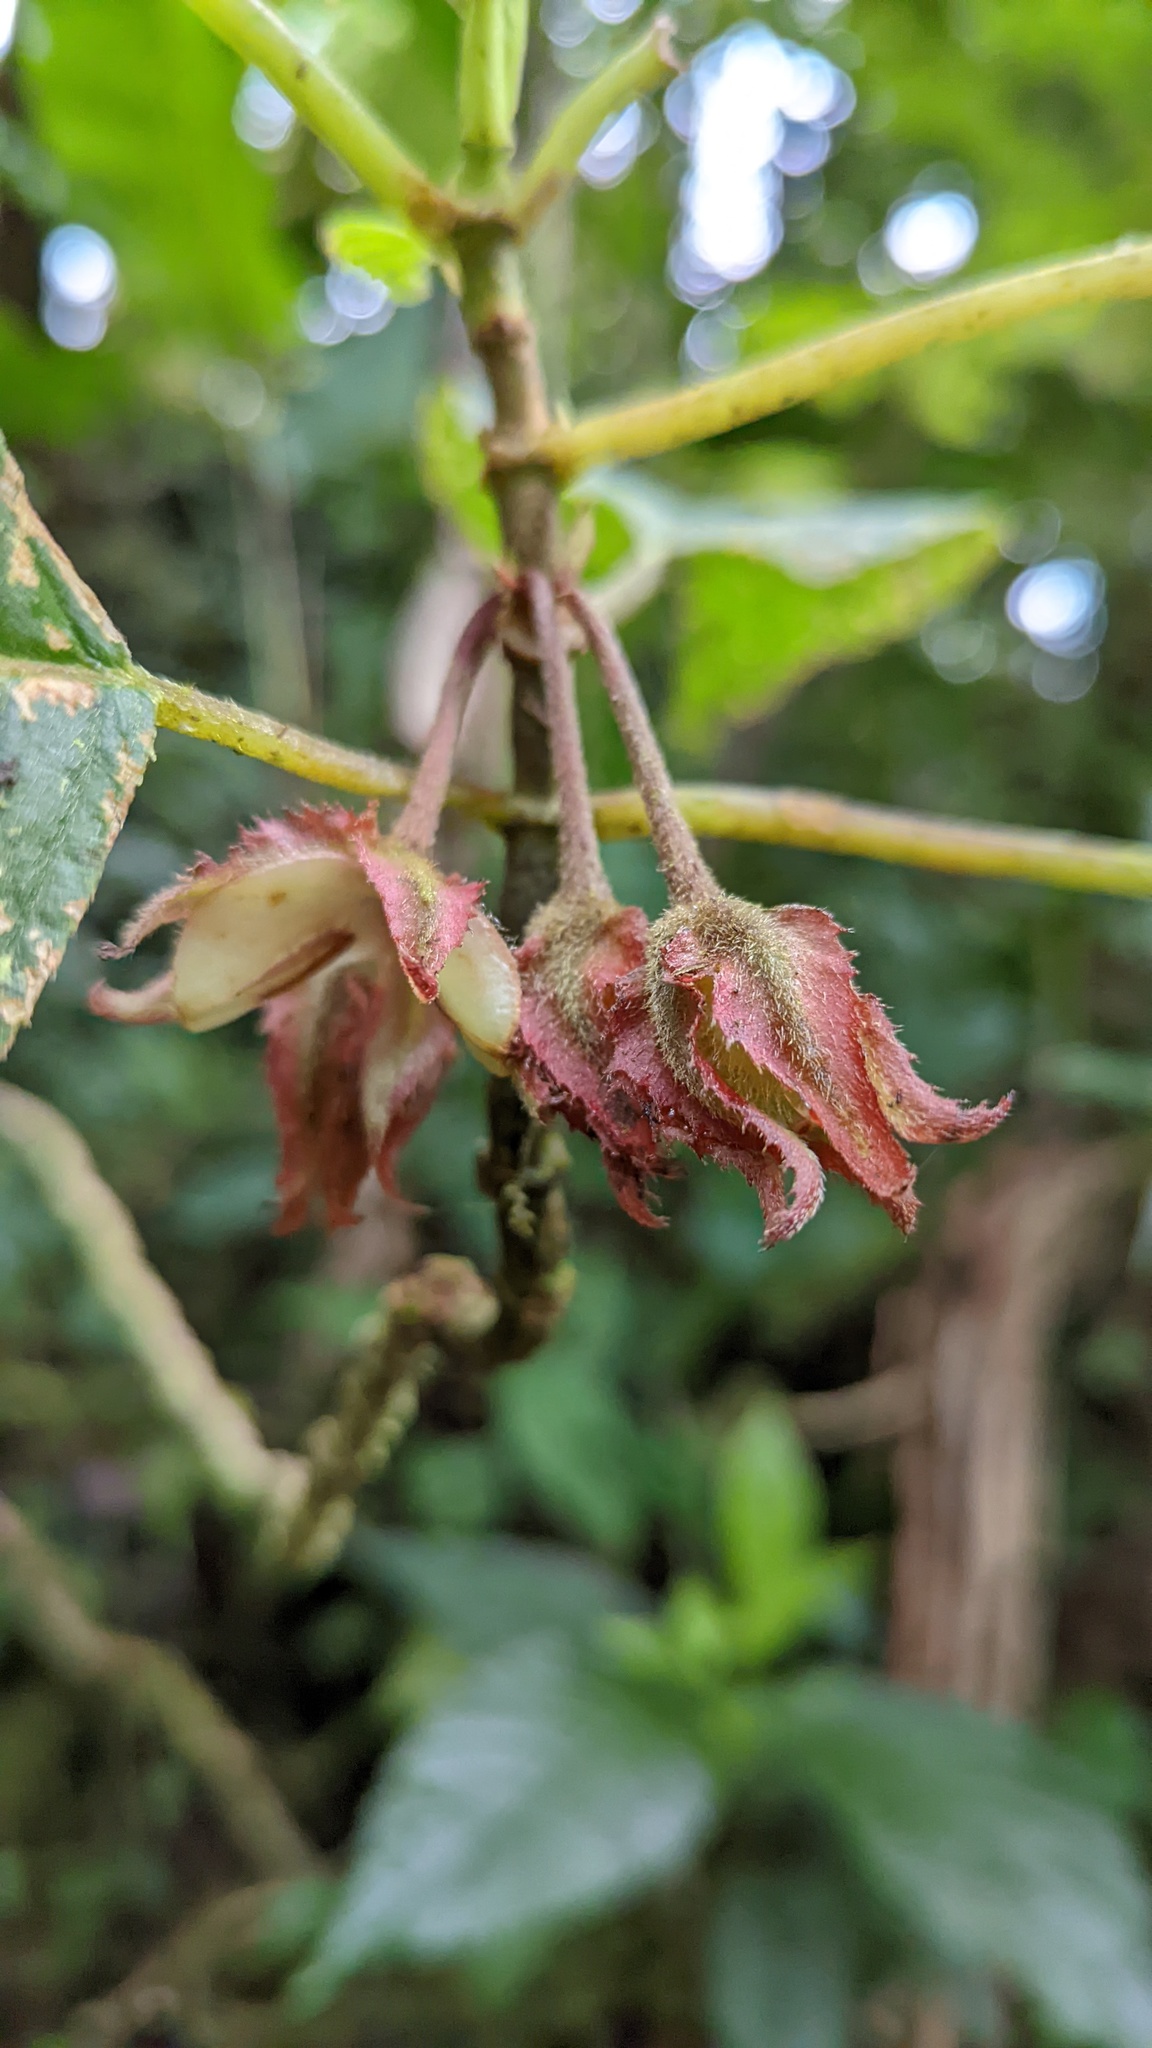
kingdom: Plantae
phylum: Tracheophyta
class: Magnoliopsida
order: Lamiales
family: Gesneriaceae
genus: Glossoloma
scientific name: Glossoloma tetragonum
